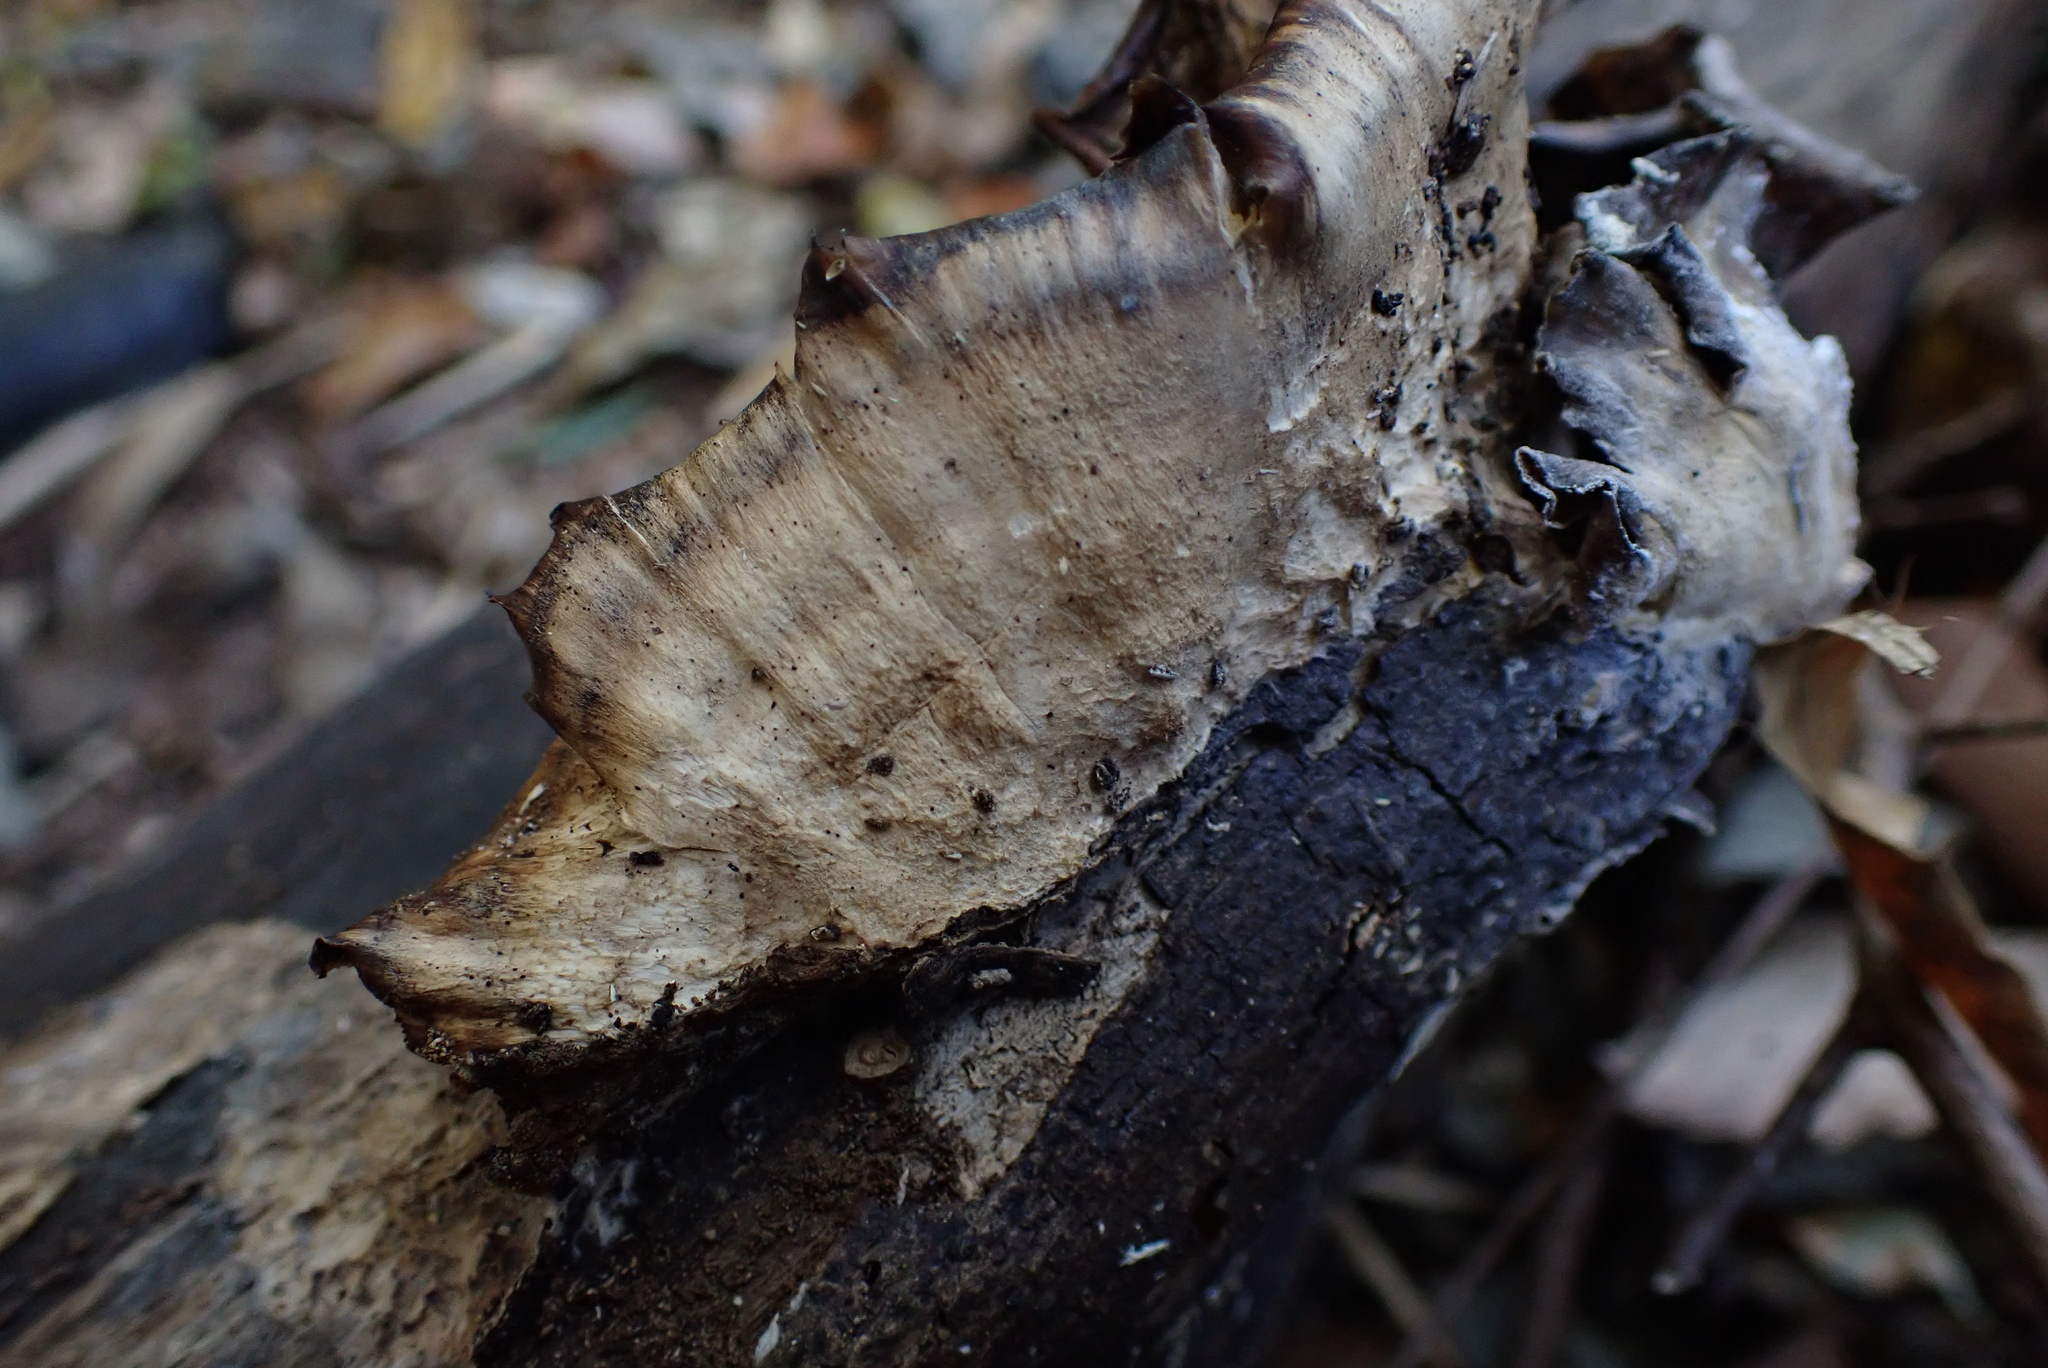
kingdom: Fungi
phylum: Basidiomycota
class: Agaricomycetes
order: Polyporales
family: Phanerochaetaceae
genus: Bjerkandera
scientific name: Bjerkandera adusta
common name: Smoky bracket
